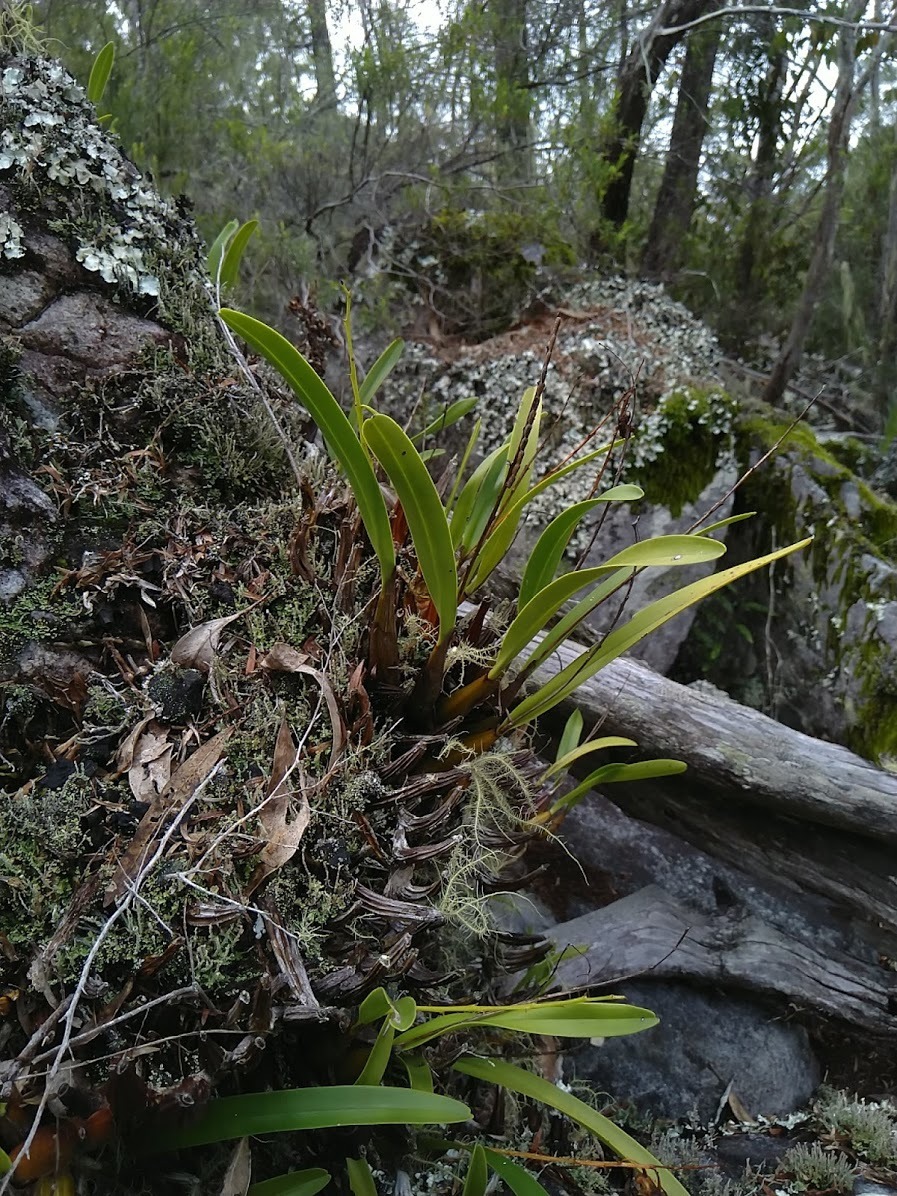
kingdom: Plantae
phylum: Tracheophyta
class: Liliopsida
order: Asparagales
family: Orchidaceae
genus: Dendrobium
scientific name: Dendrobium monophyllum
